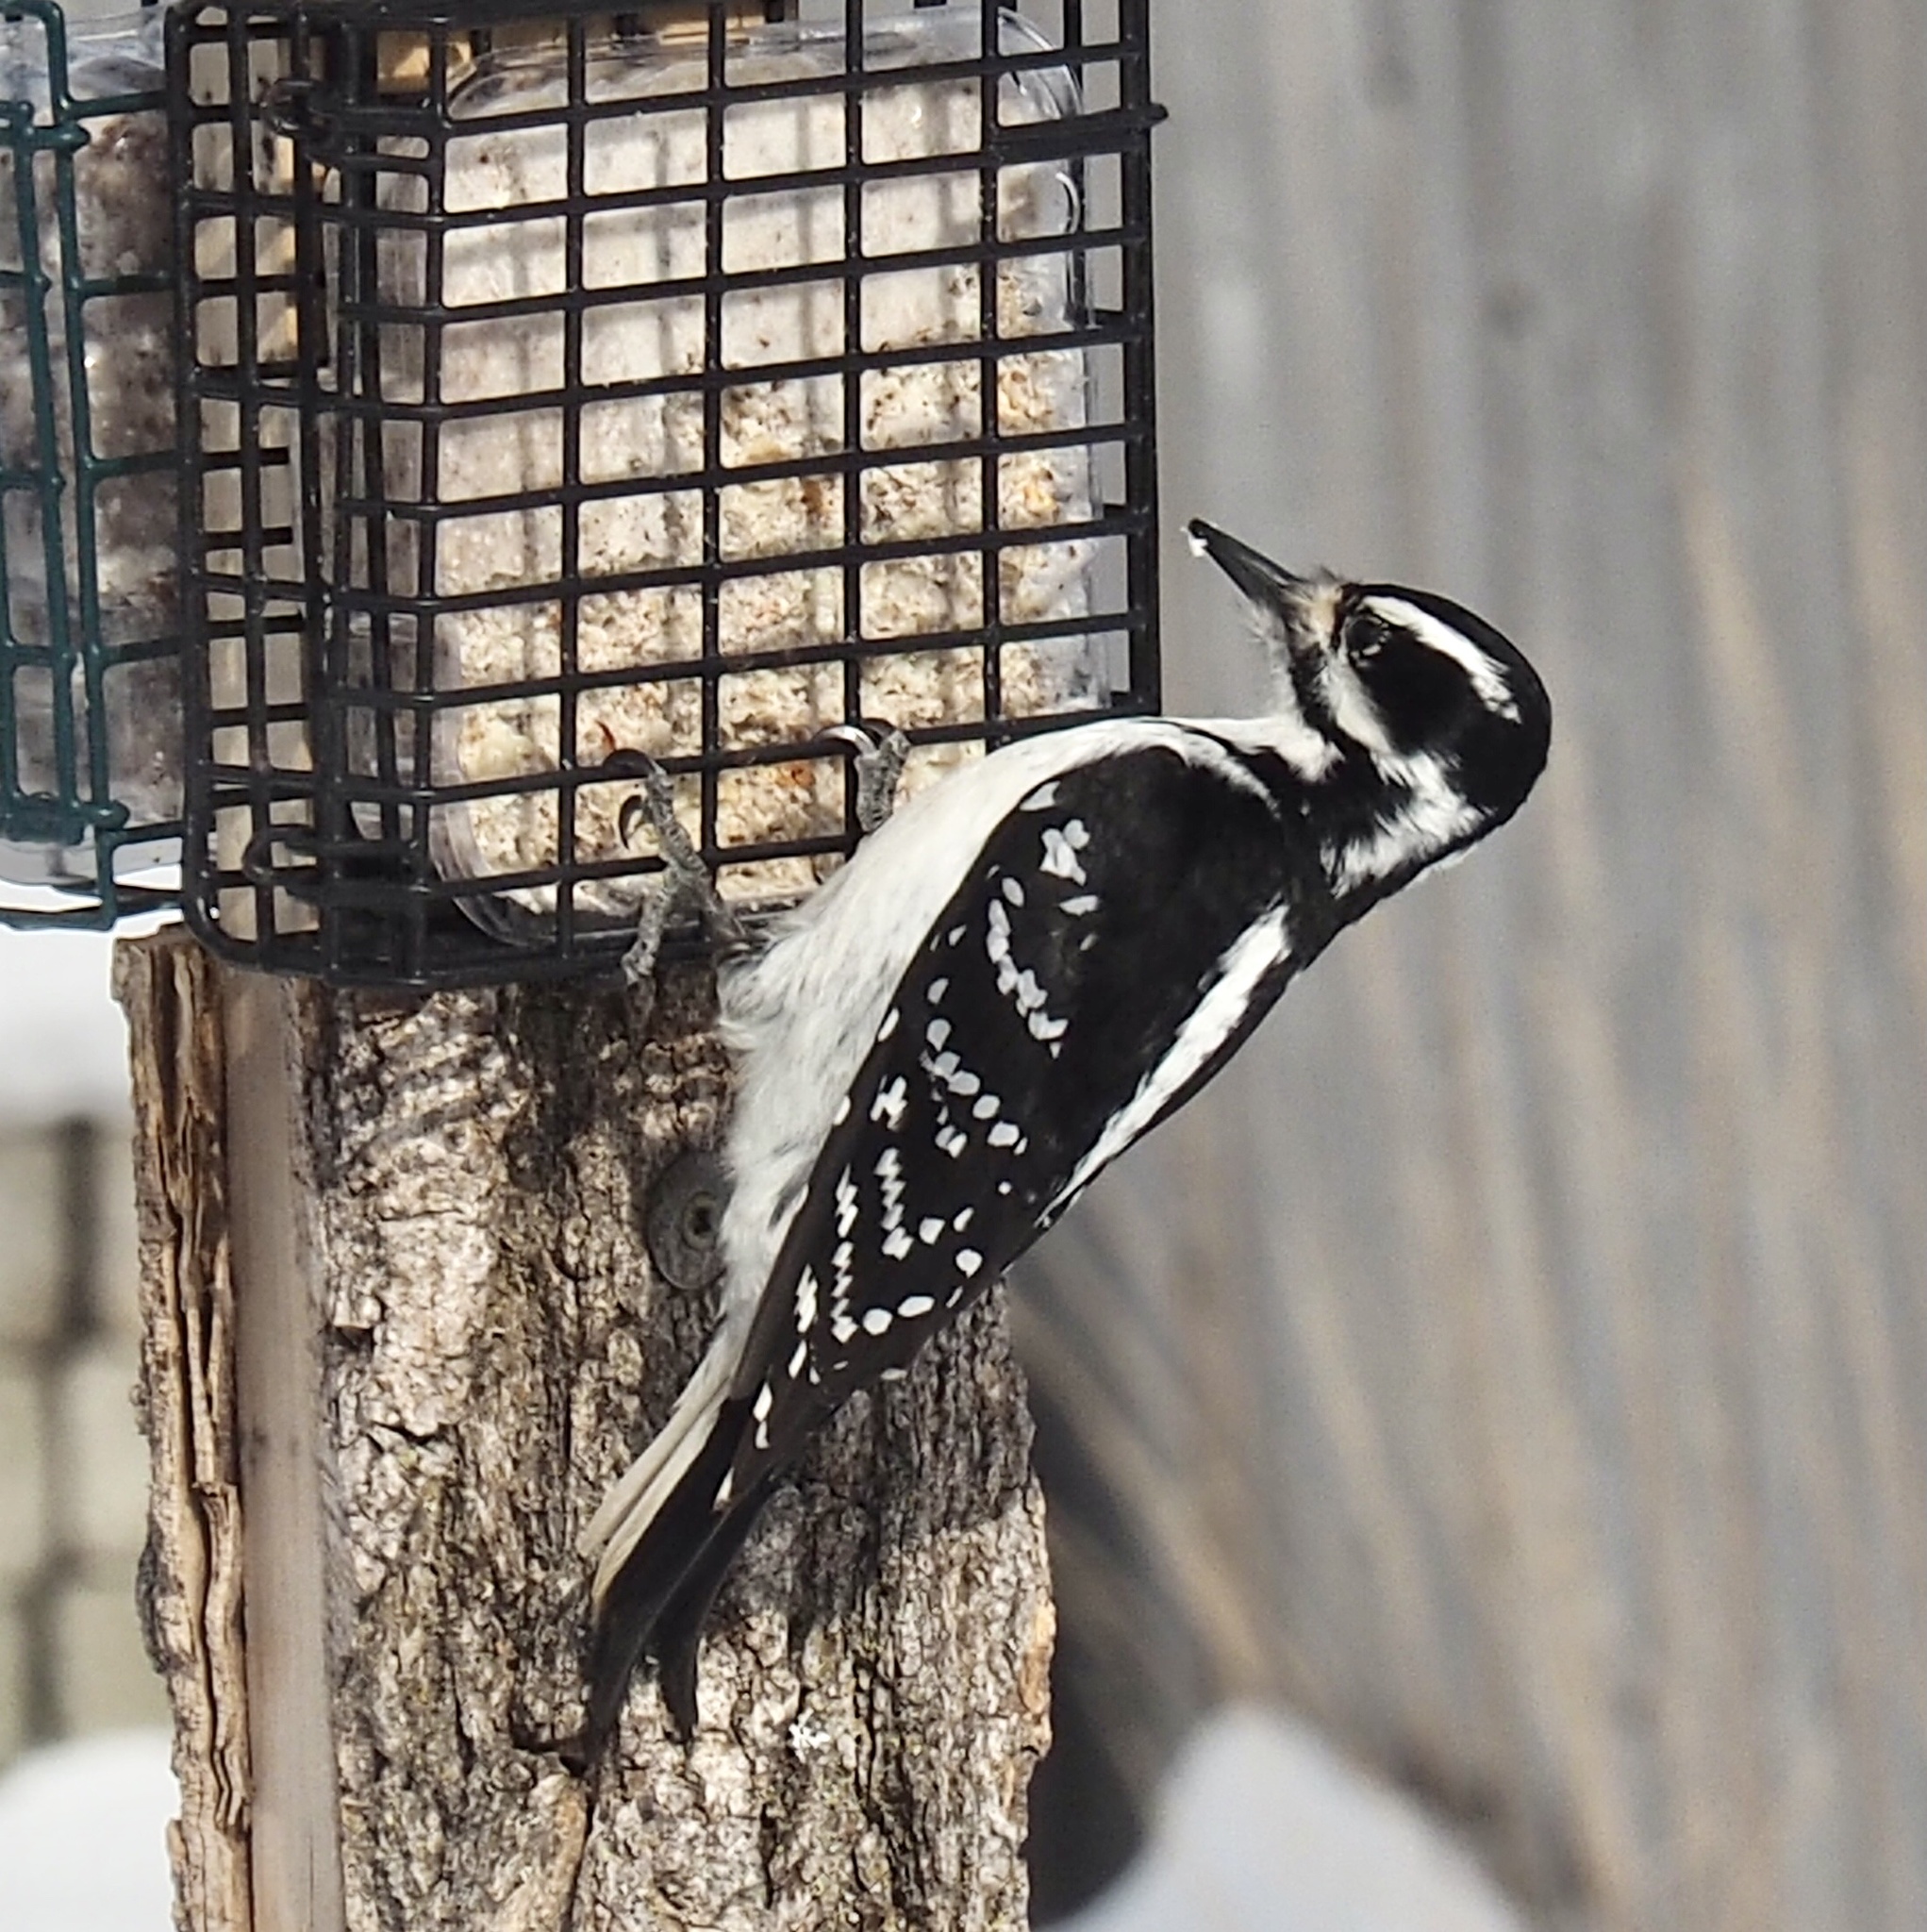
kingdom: Animalia
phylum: Chordata
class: Aves
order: Piciformes
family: Picidae
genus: Leuconotopicus
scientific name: Leuconotopicus villosus
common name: Hairy woodpecker
